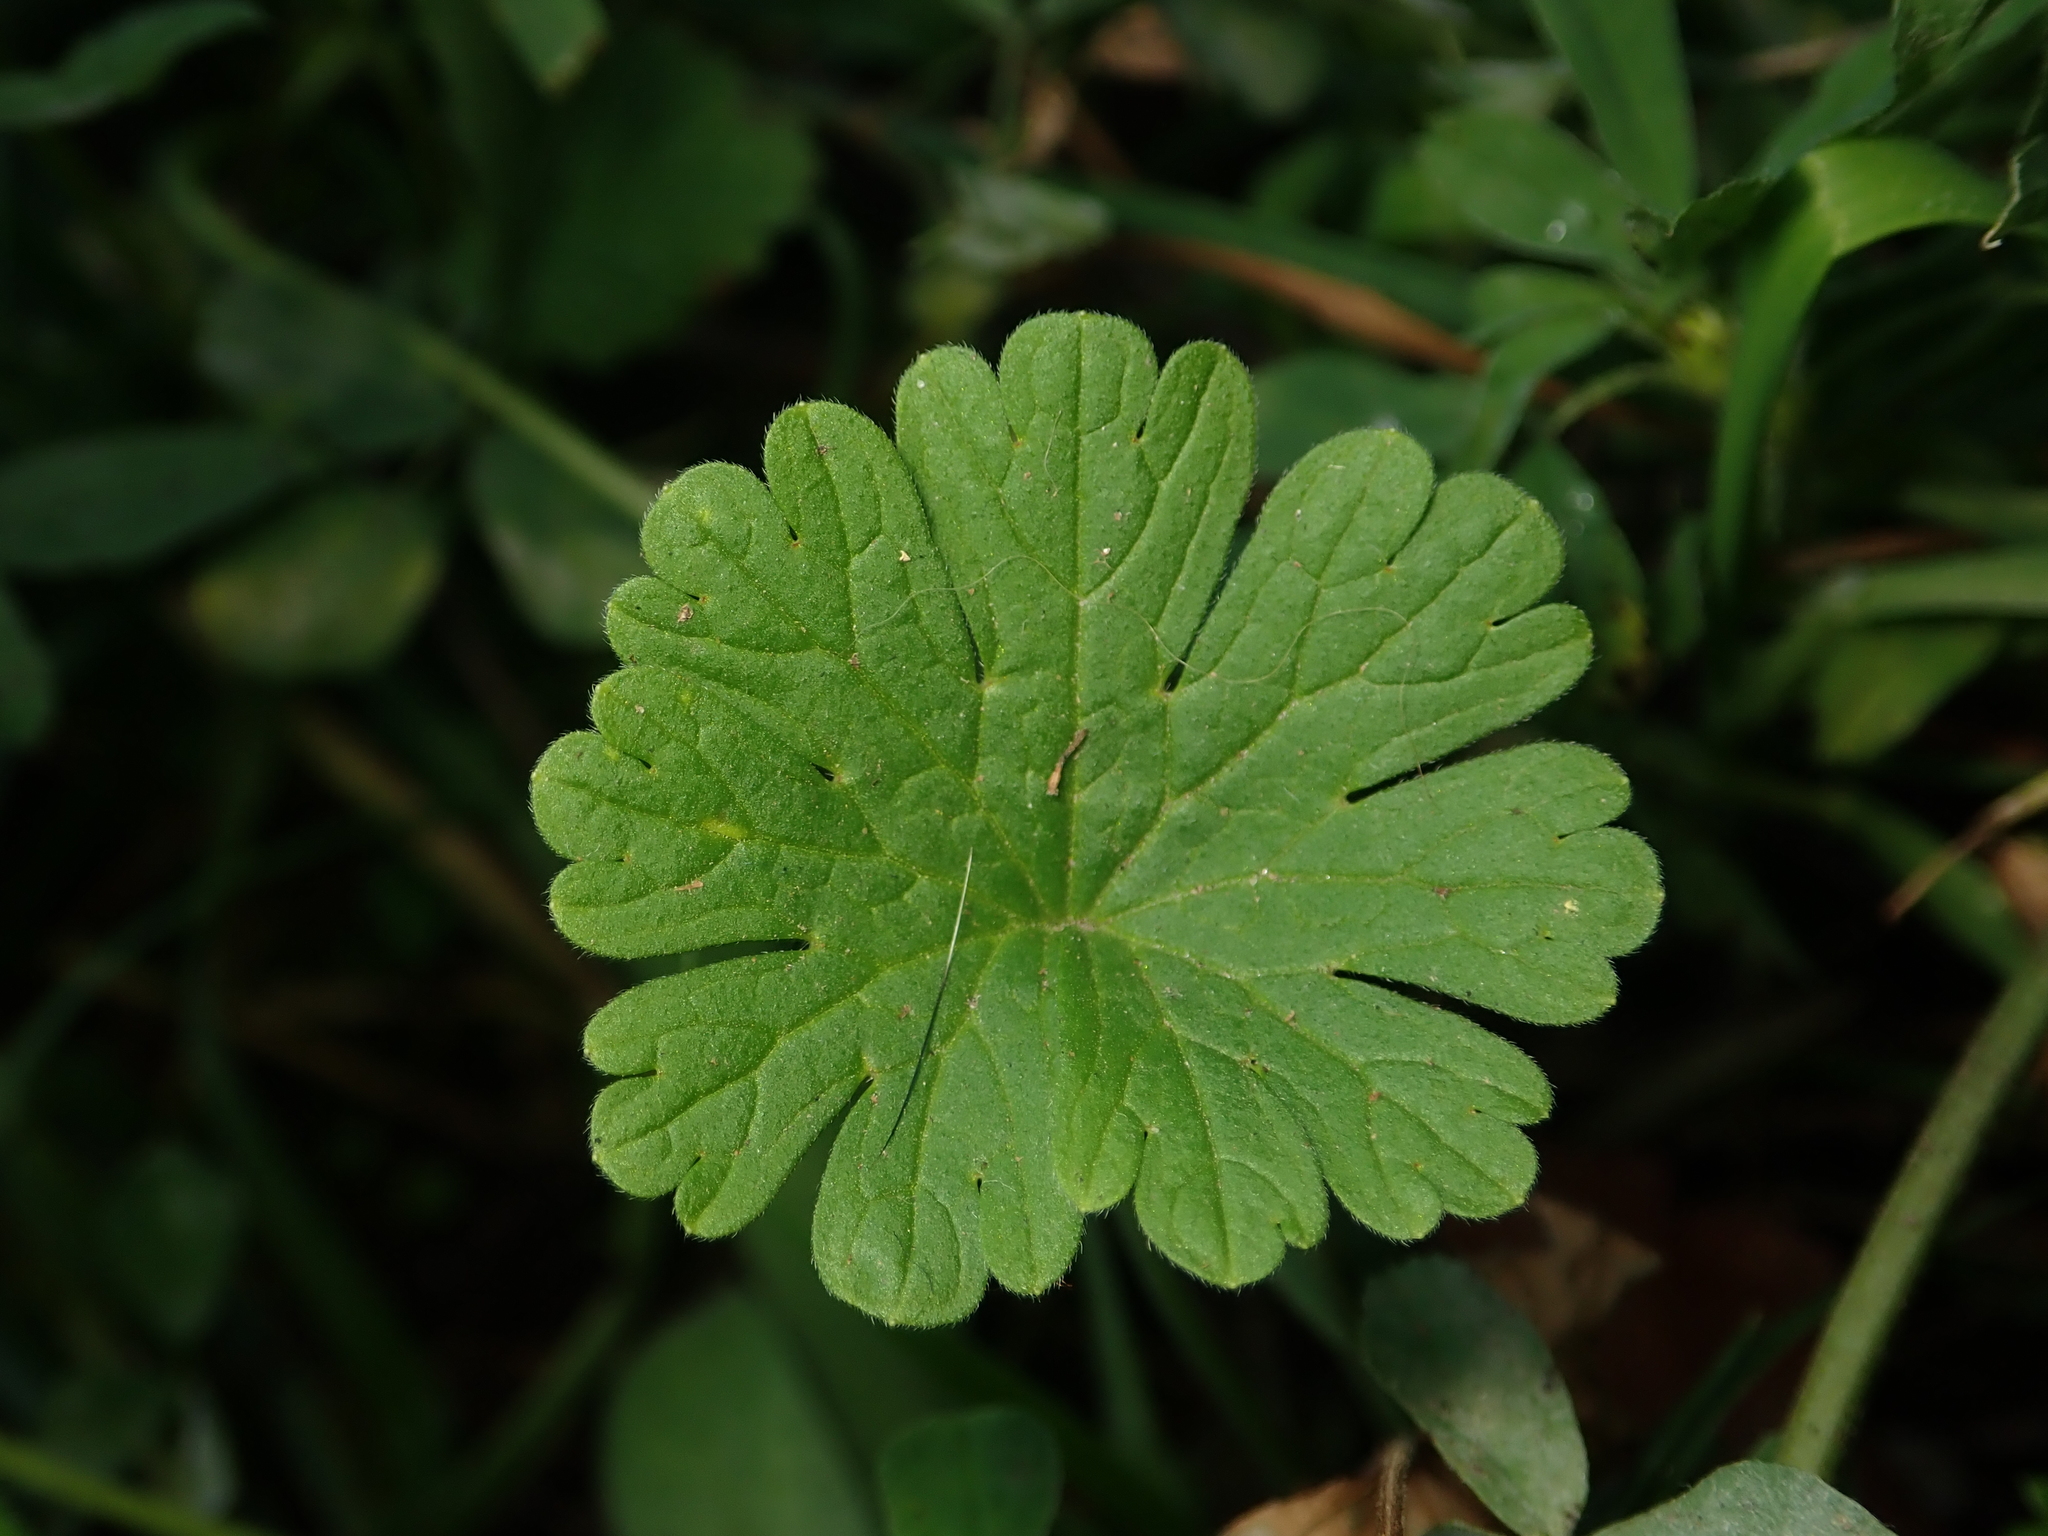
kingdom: Plantae
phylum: Tracheophyta
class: Magnoliopsida
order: Geraniales
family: Geraniaceae
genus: Geranium
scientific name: Geranium molle
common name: Dove's-foot crane's-bill
